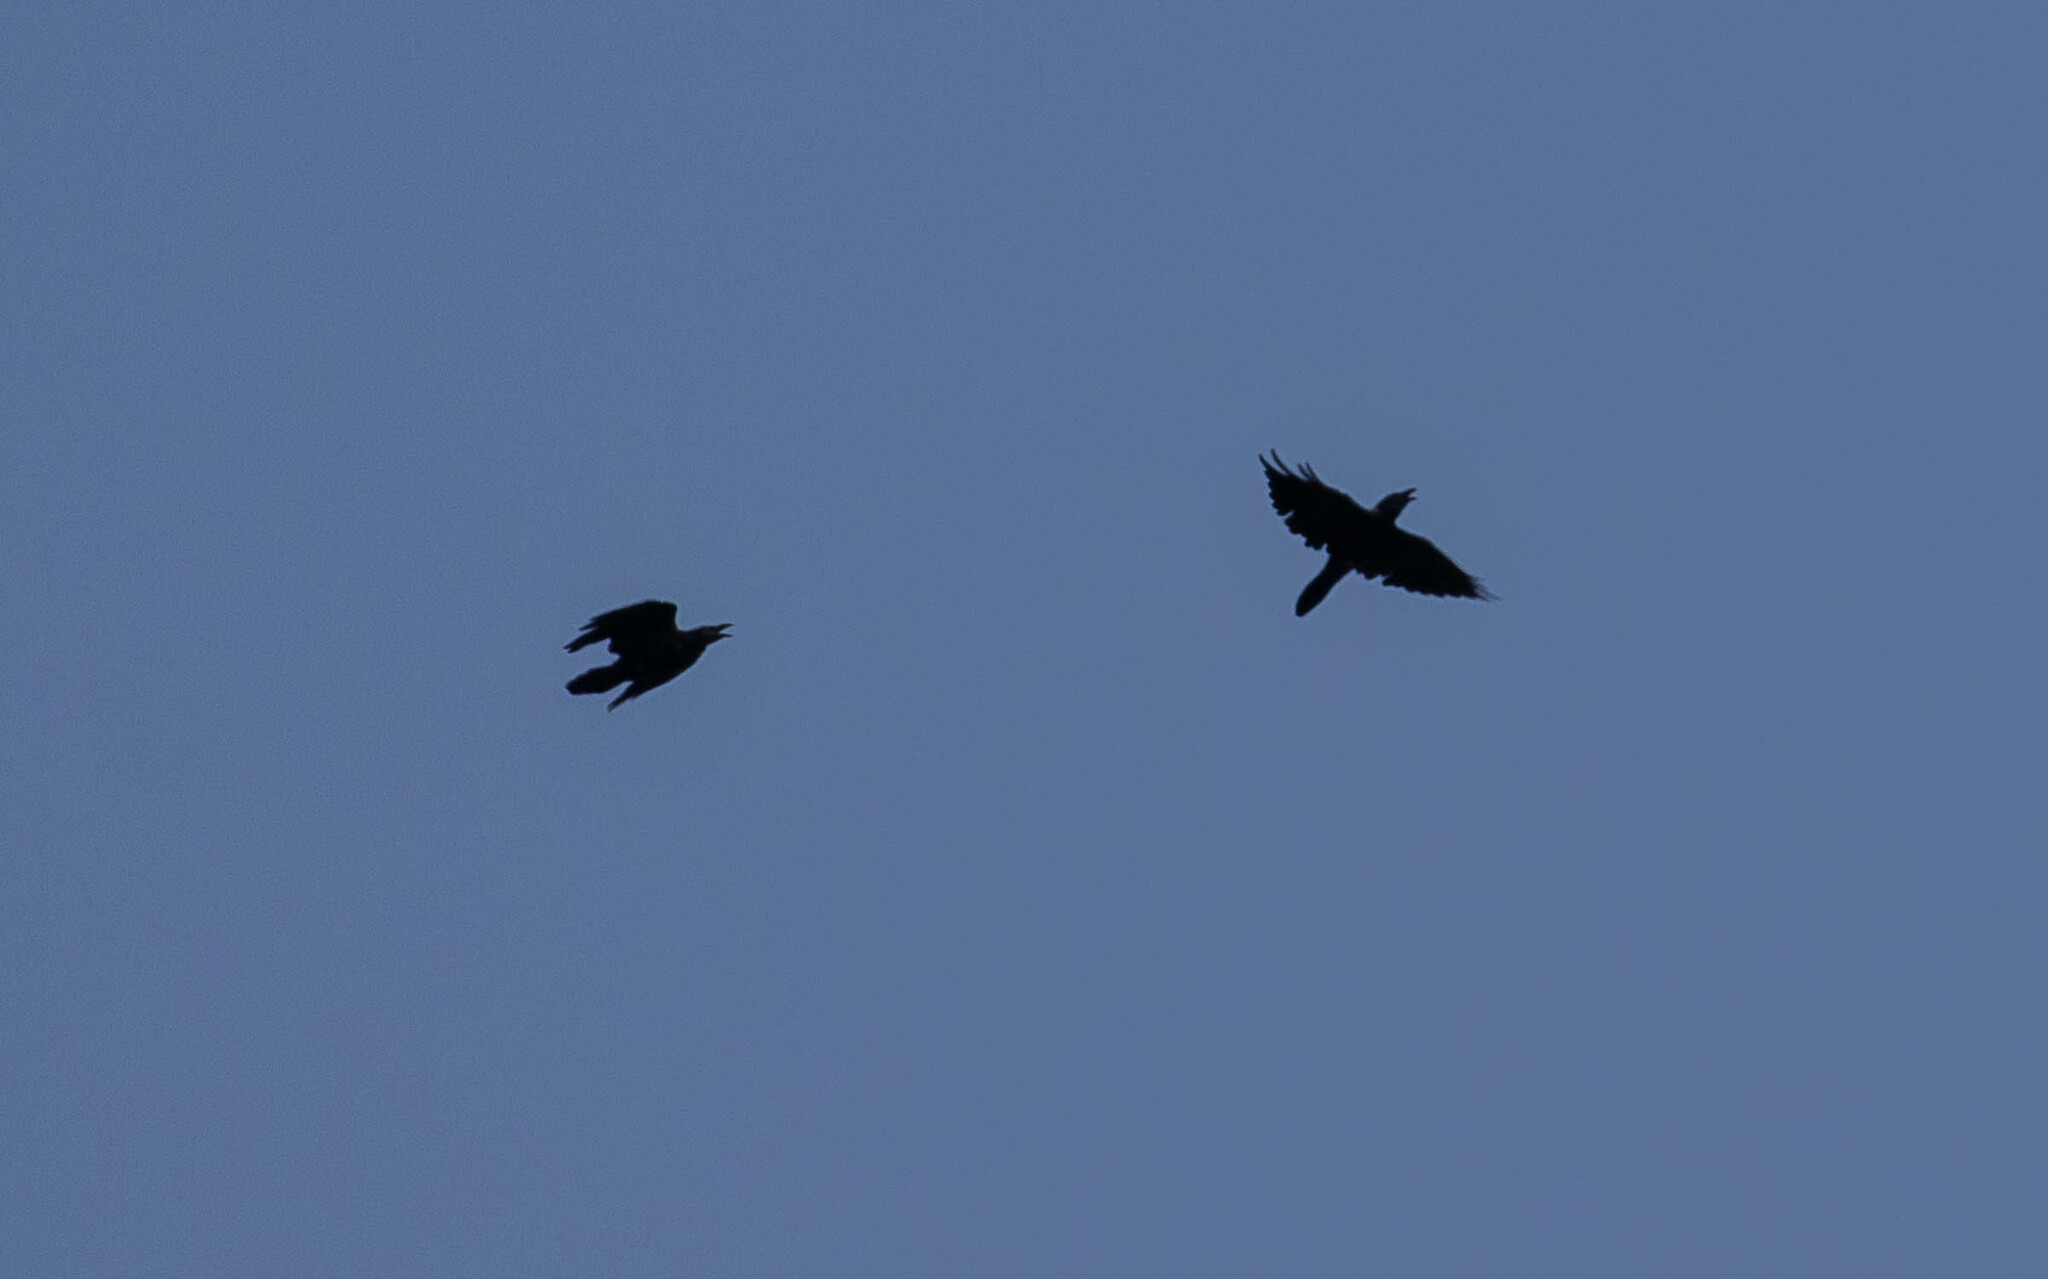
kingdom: Animalia
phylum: Chordata
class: Aves
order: Passeriformes
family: Corvidae
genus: Corvus
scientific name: Corvus corax
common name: Common raven
